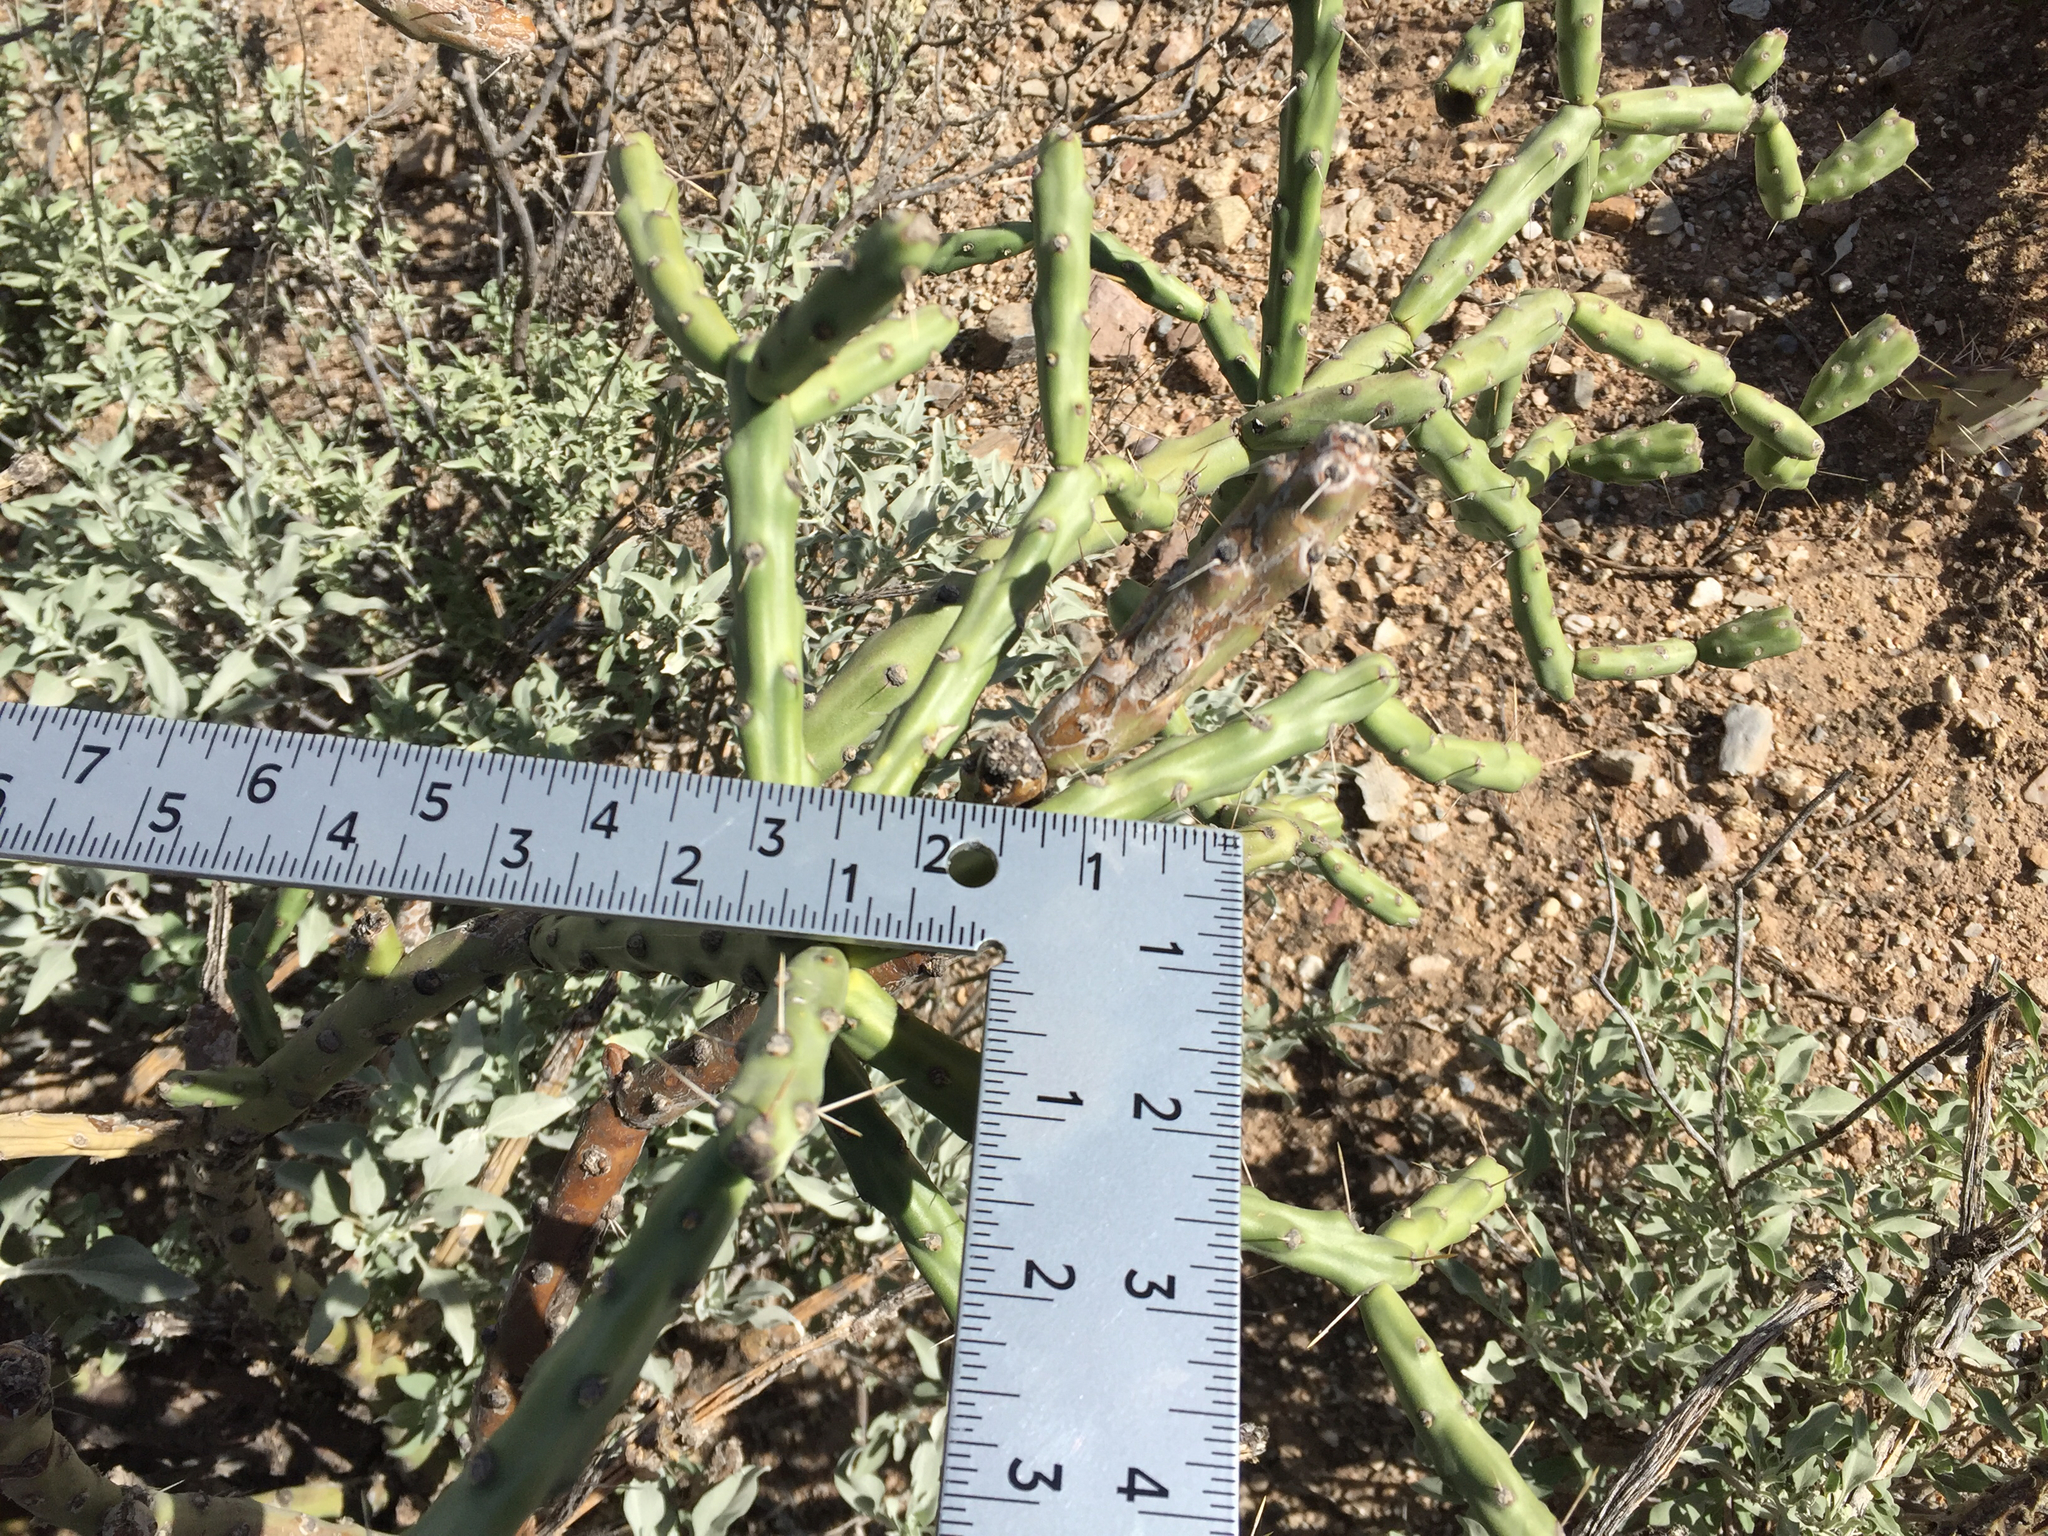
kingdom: Plantae
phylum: Tracheophyta
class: Magnoliopsida
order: Caryophyllales
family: Cactaceae
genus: Cylindropuntia
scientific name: Cylindropuntia arbuscula
